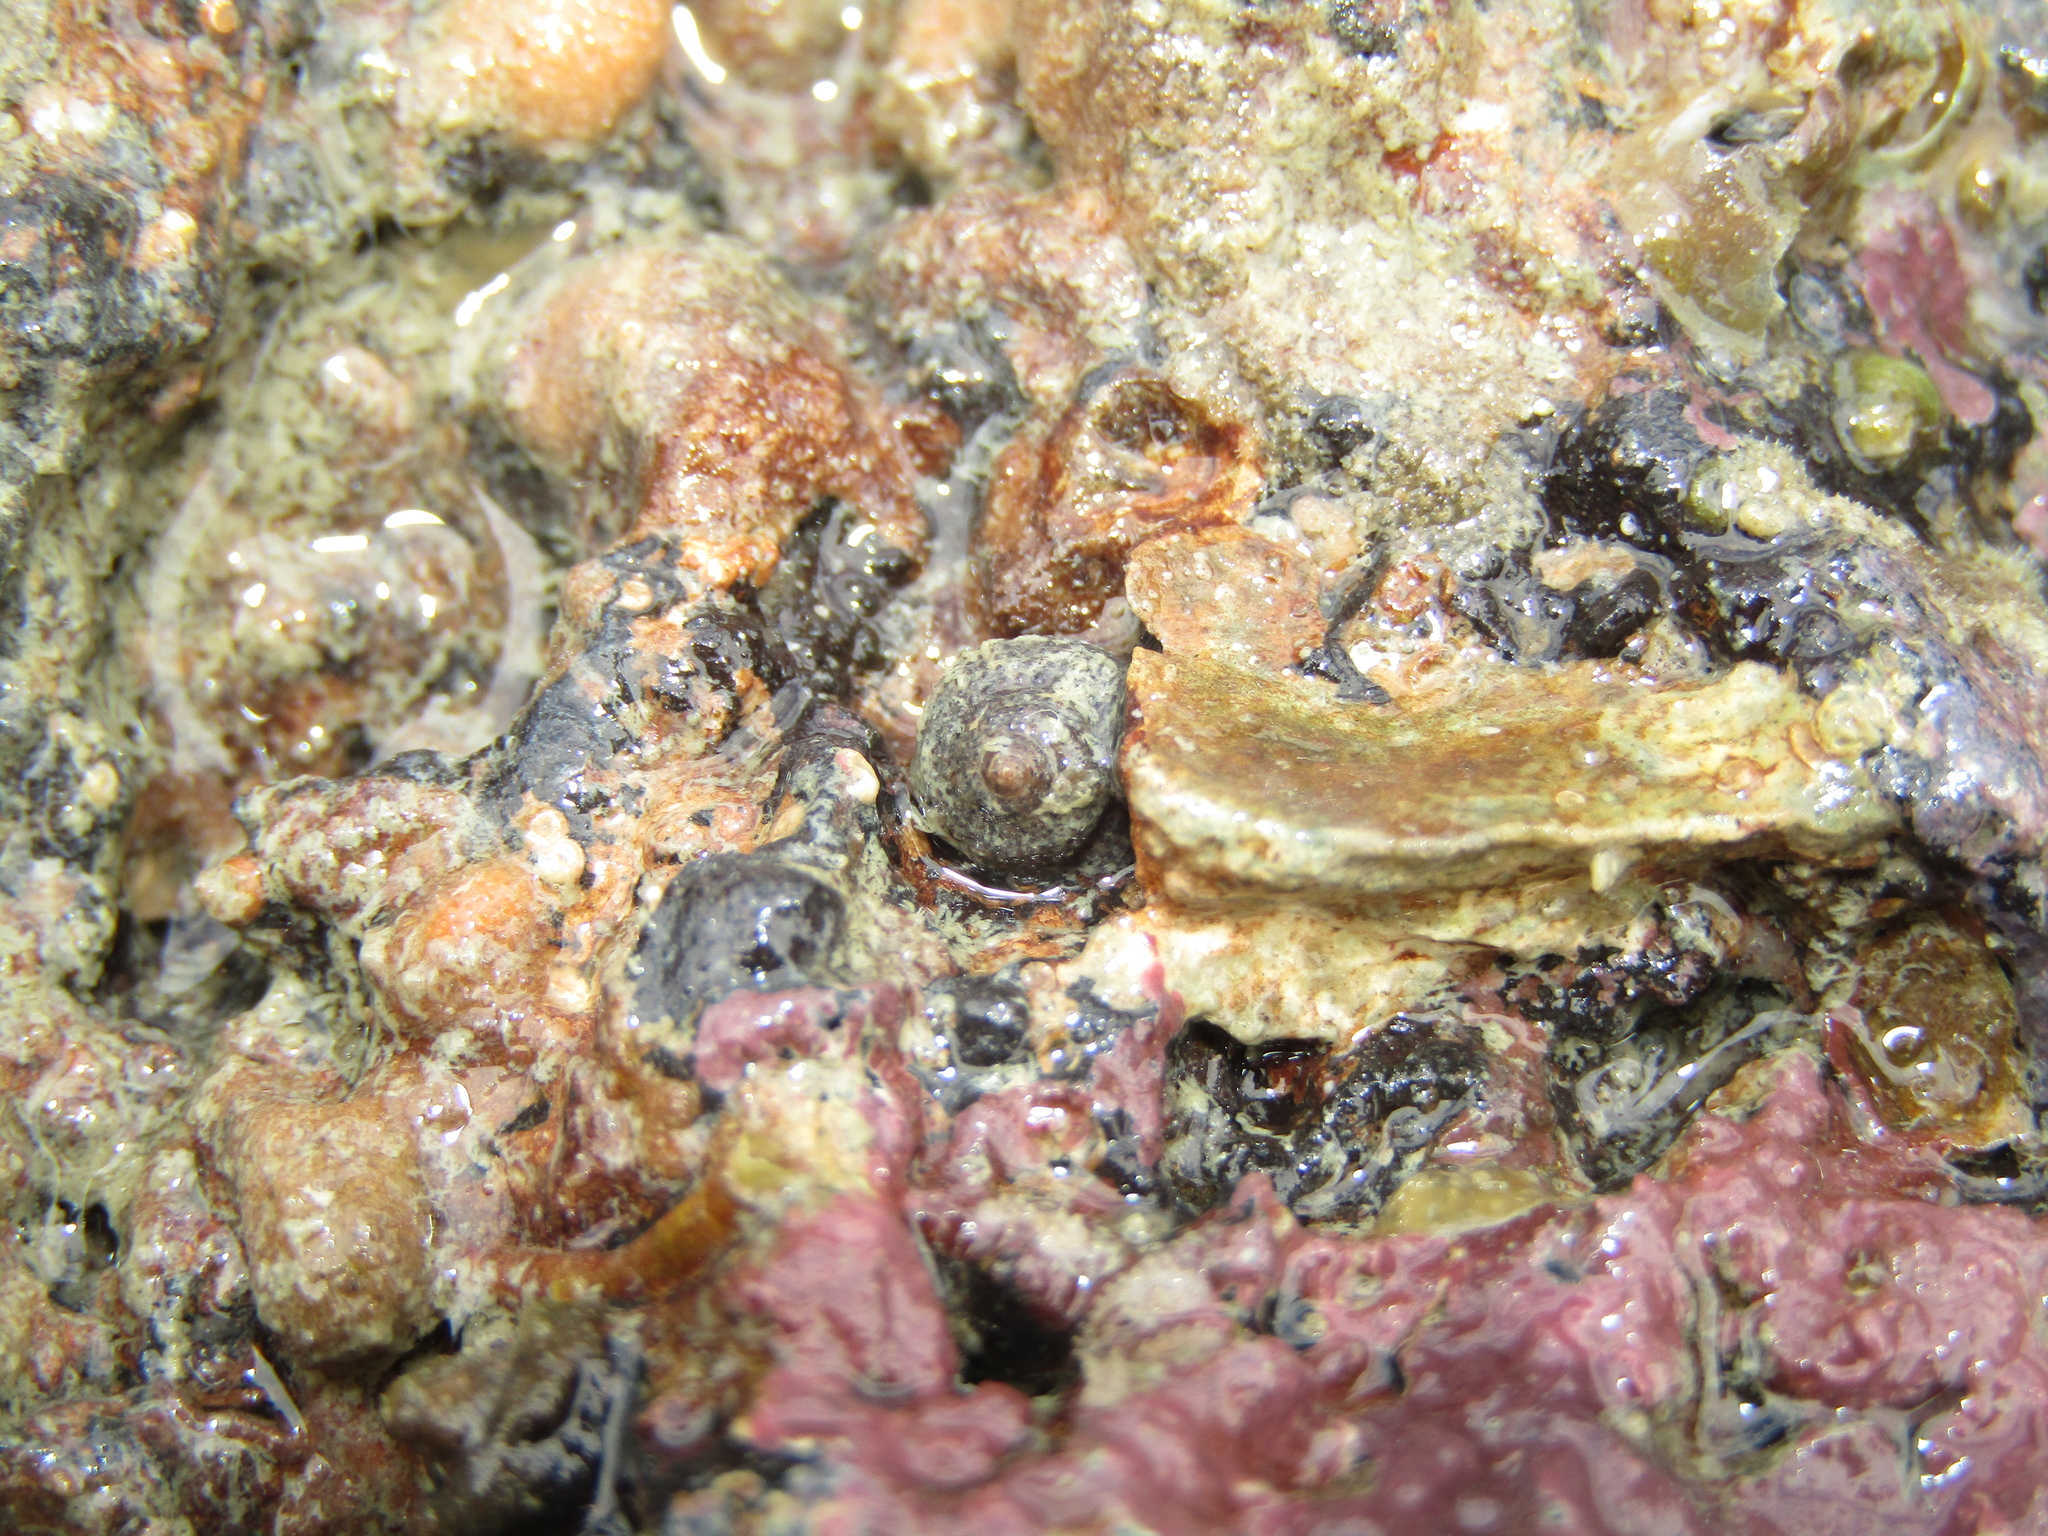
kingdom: Animalia
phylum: Mollusca
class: Gastropoda
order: Seguenziida
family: Chilodontaidae
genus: Herpetopoma
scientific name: Herpetopoma bellum
